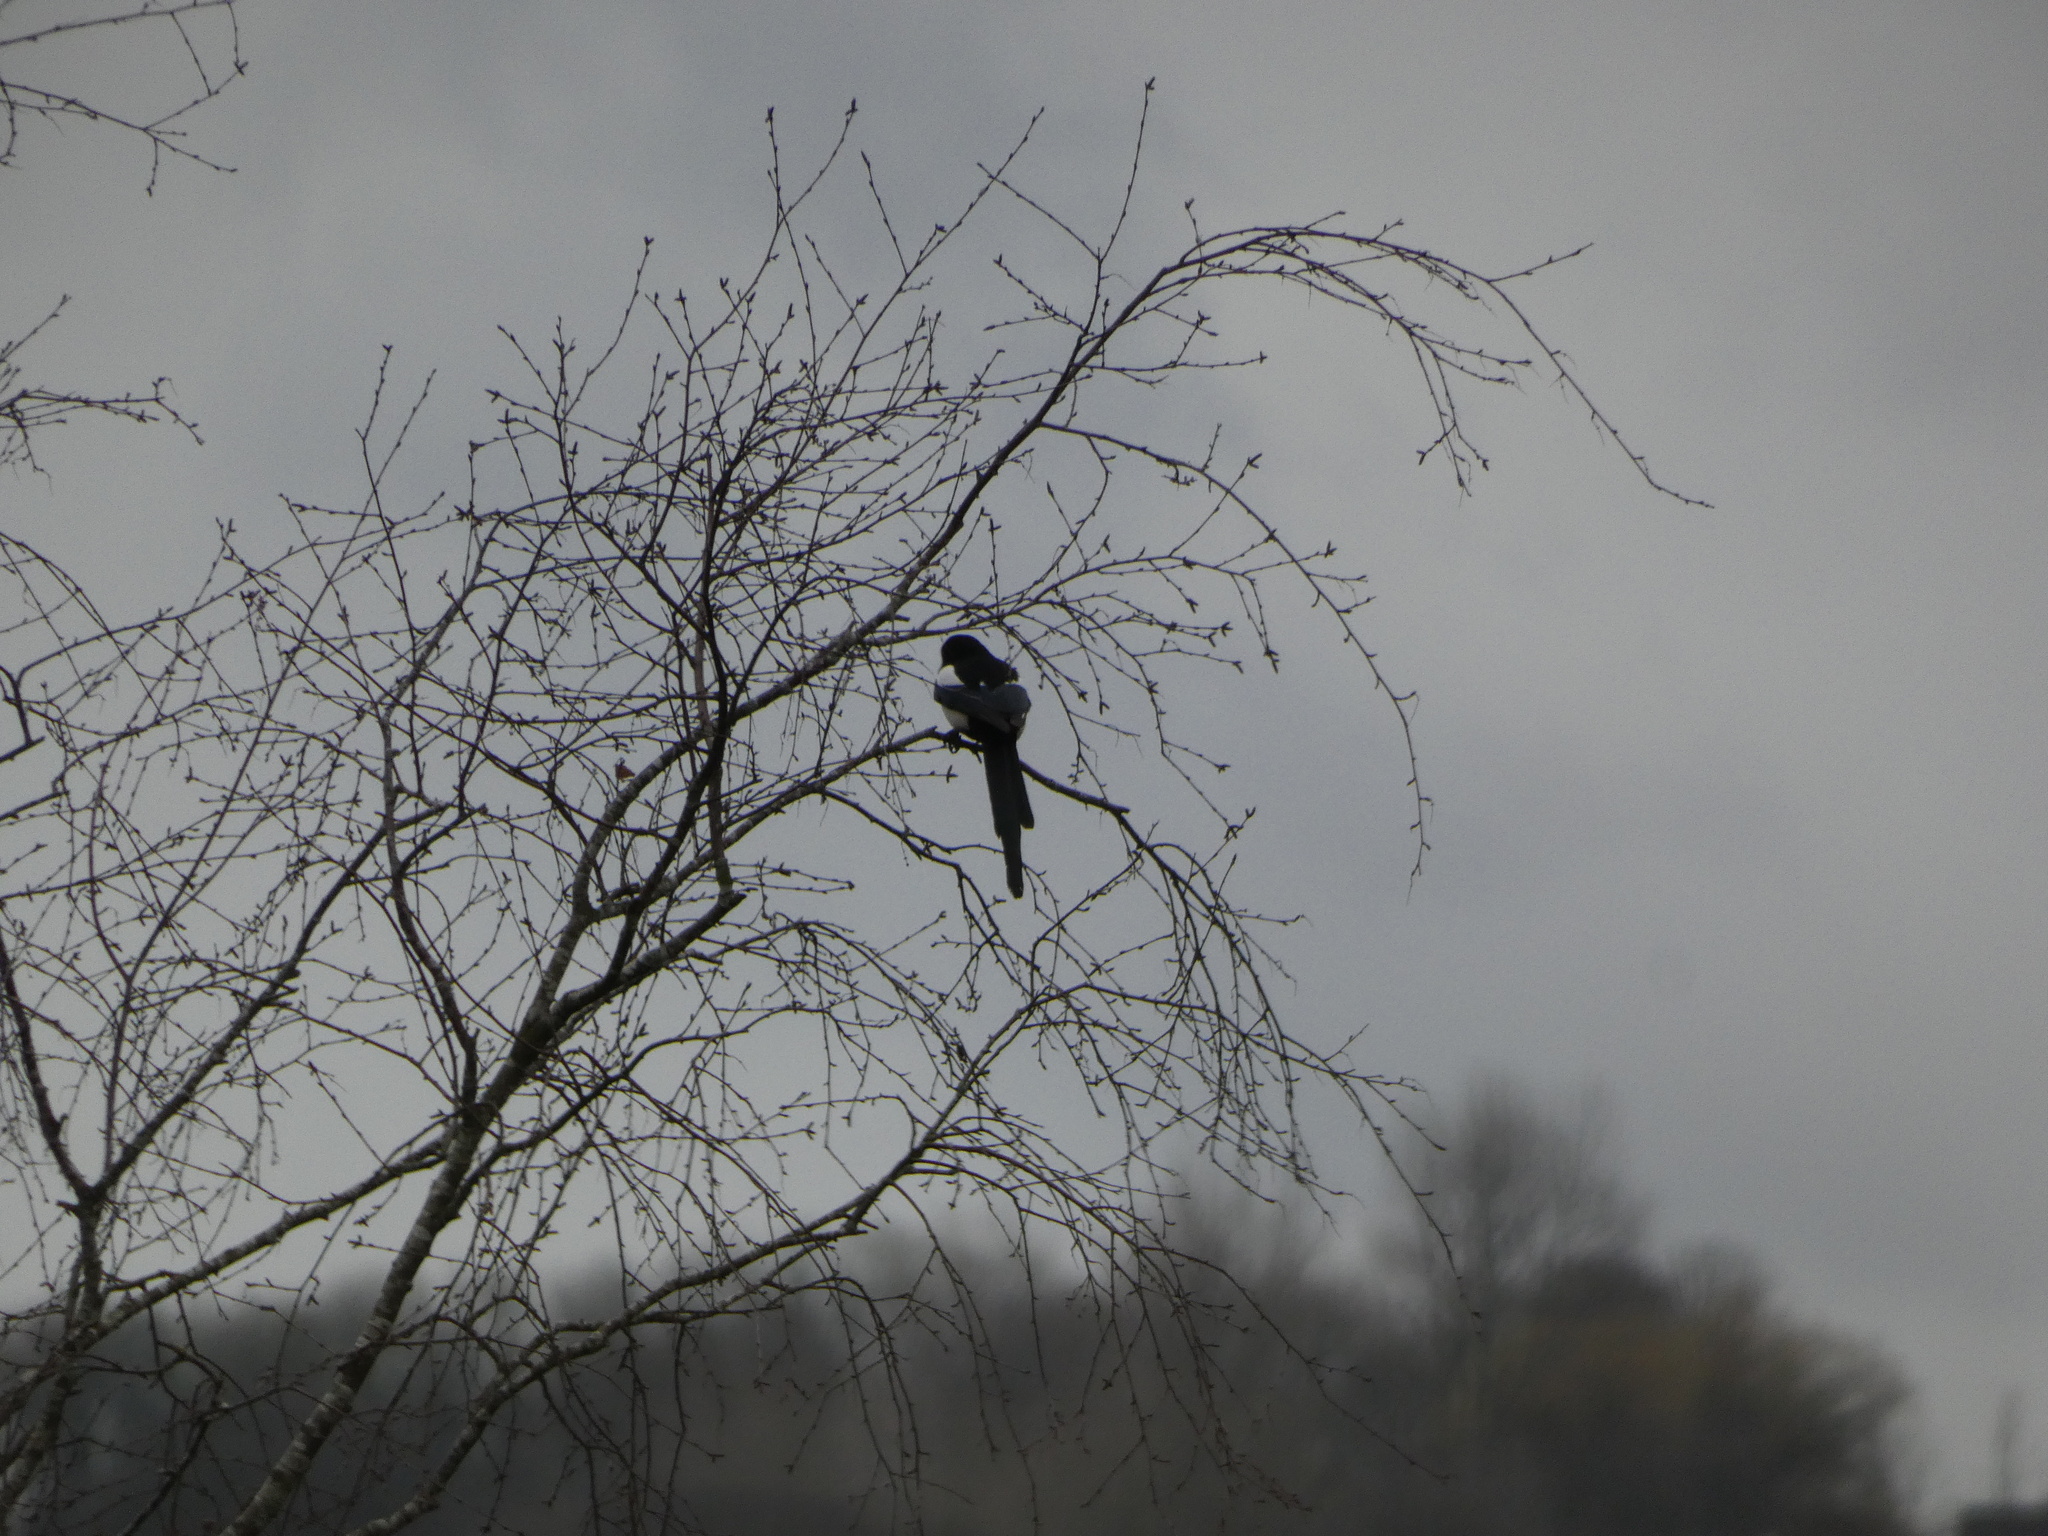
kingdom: Animalia
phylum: Chordata
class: Aves
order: Passeriformes
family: Corvidae
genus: Pica
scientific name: Pica pica
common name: Eurasian magpie
